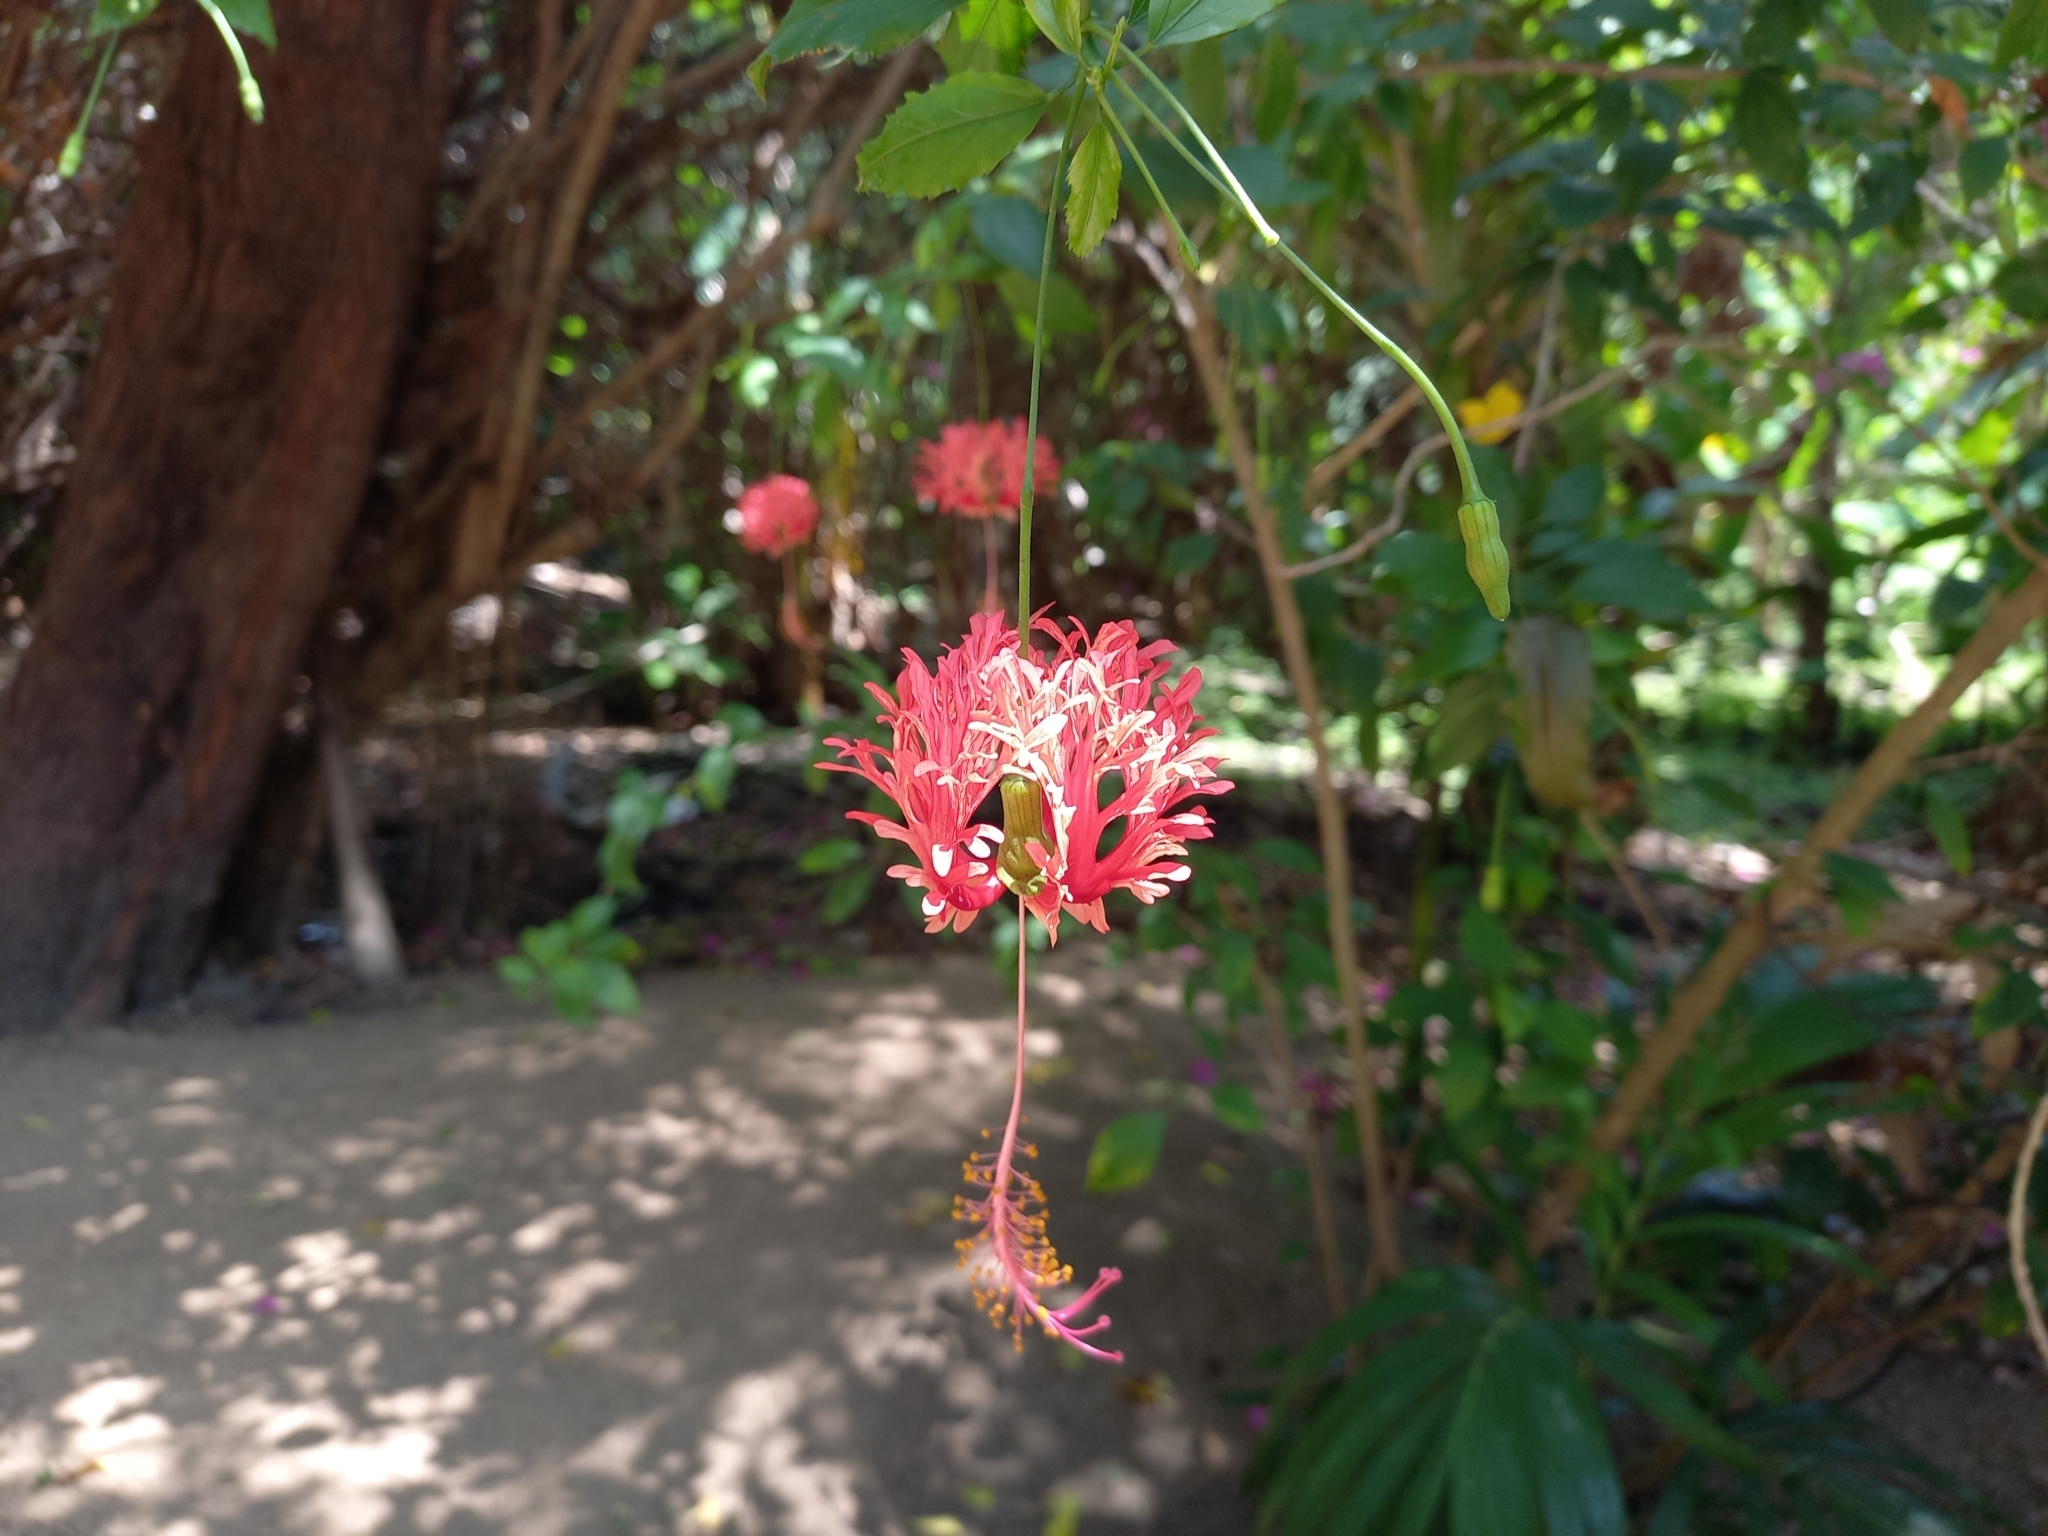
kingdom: Plantae
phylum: Tracheophyta
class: Magnoliopsida
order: Malvales
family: Malvaceae
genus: Hibiscus
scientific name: Hibiscus schizopetalus
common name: Fringed rosemallow
